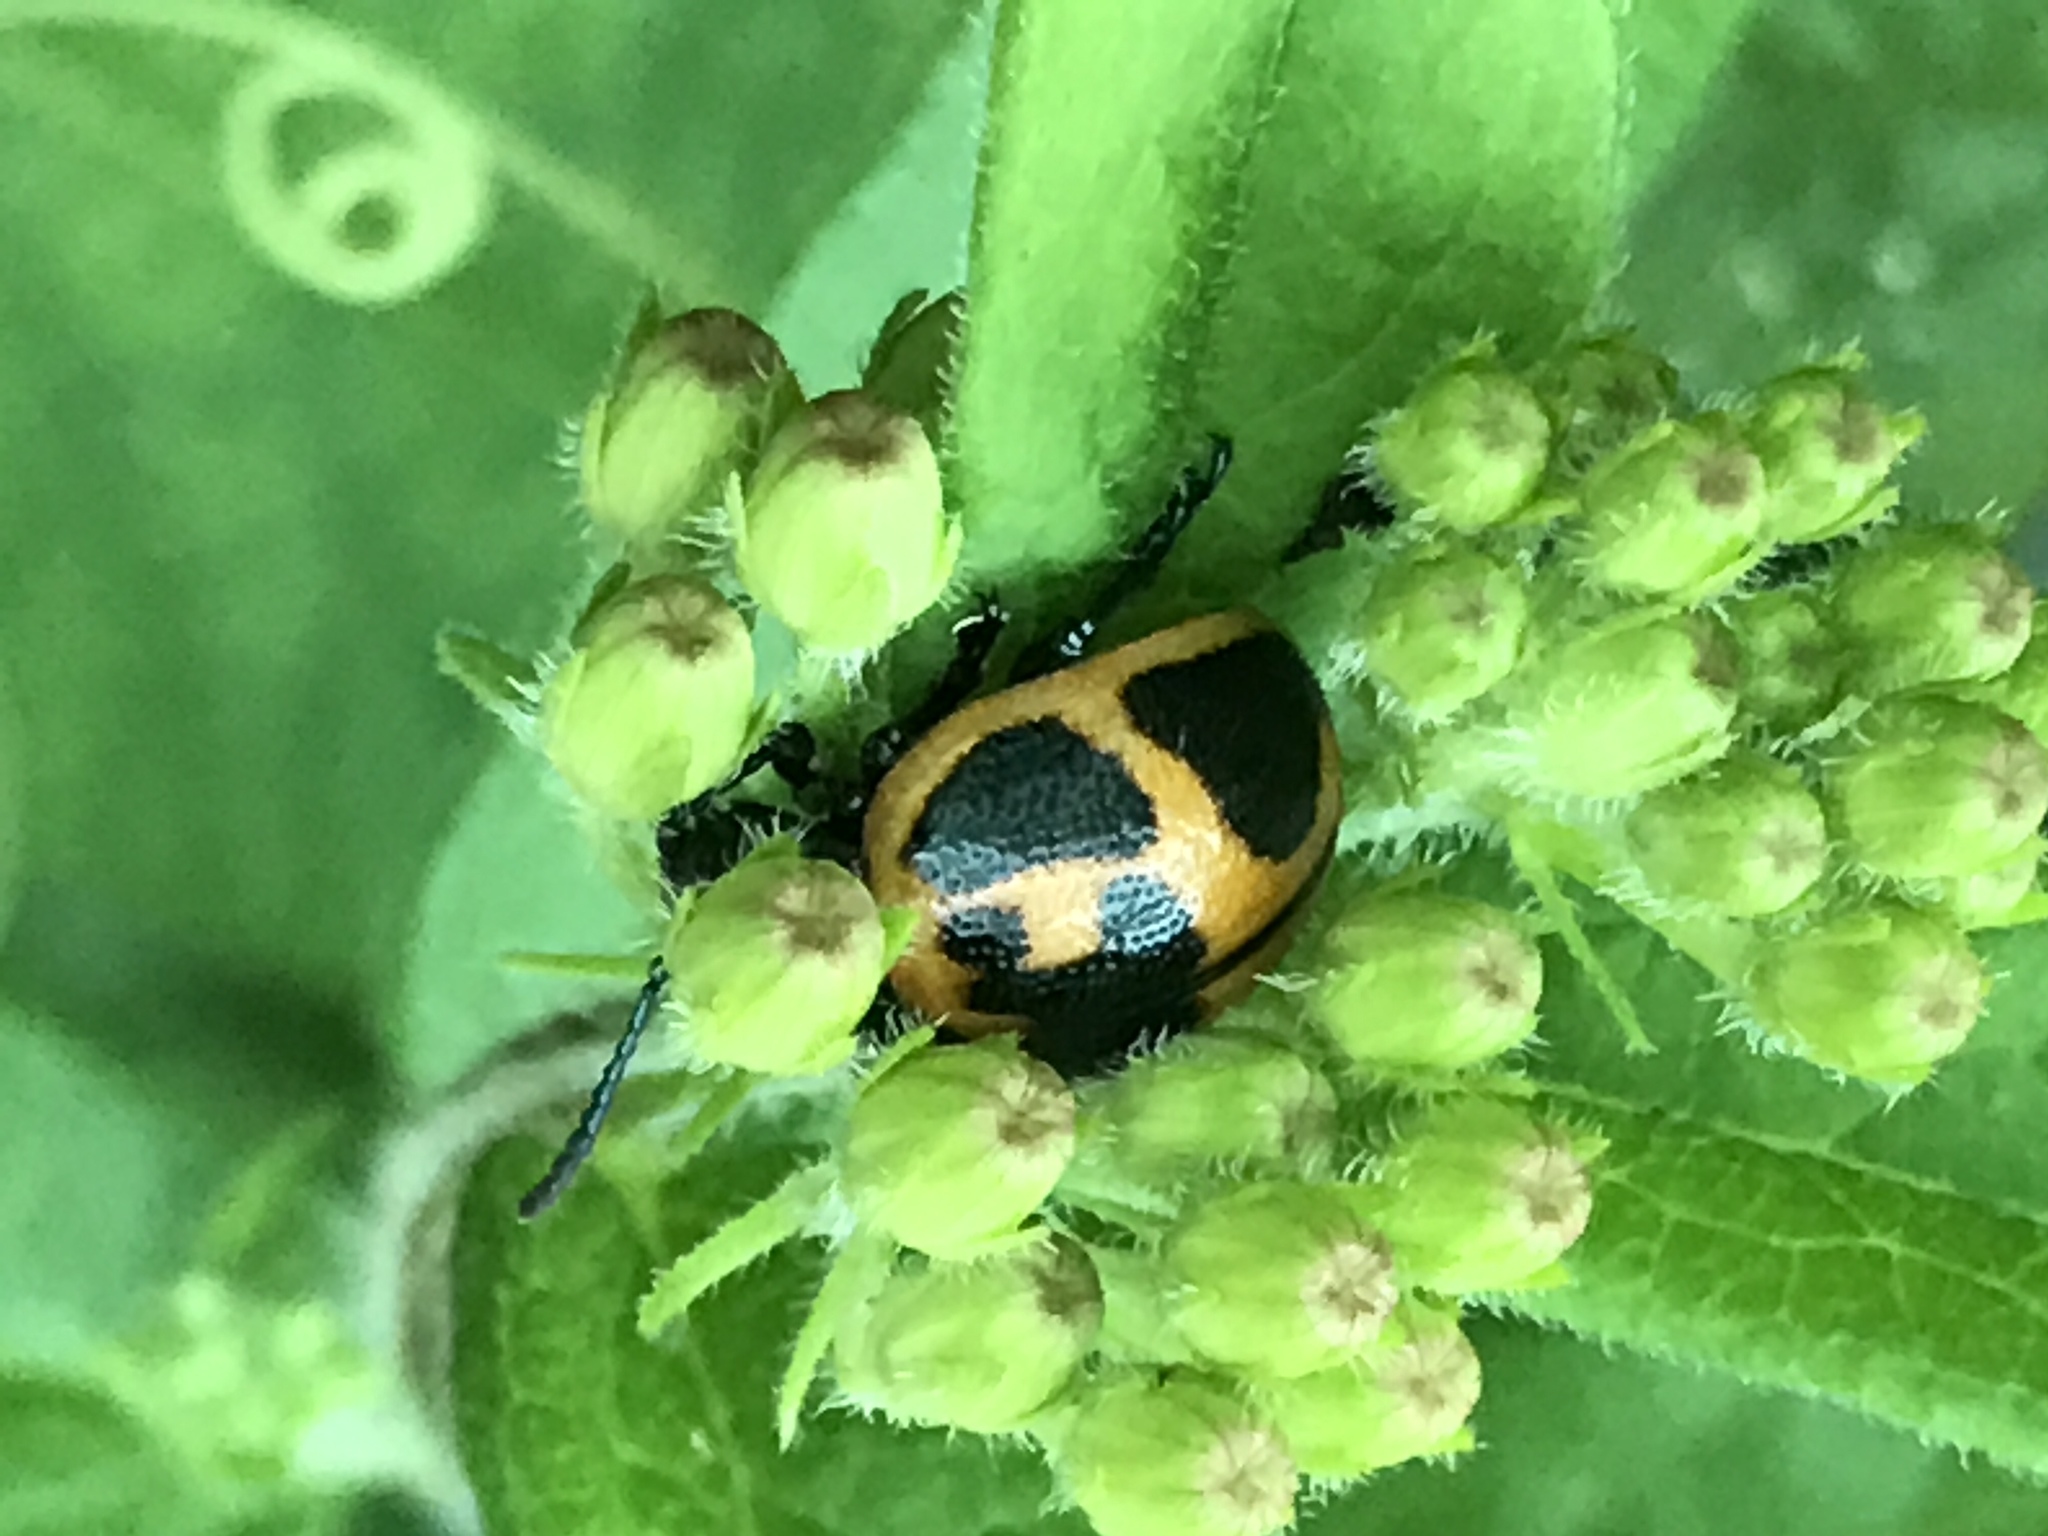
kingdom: Animalia
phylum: Arthropoda
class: Insecta
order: Coleoptera
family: Chrysomelidae
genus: Labidomera
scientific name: Labidomera clivicollis
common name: Swamp milkweed leaf beetle
